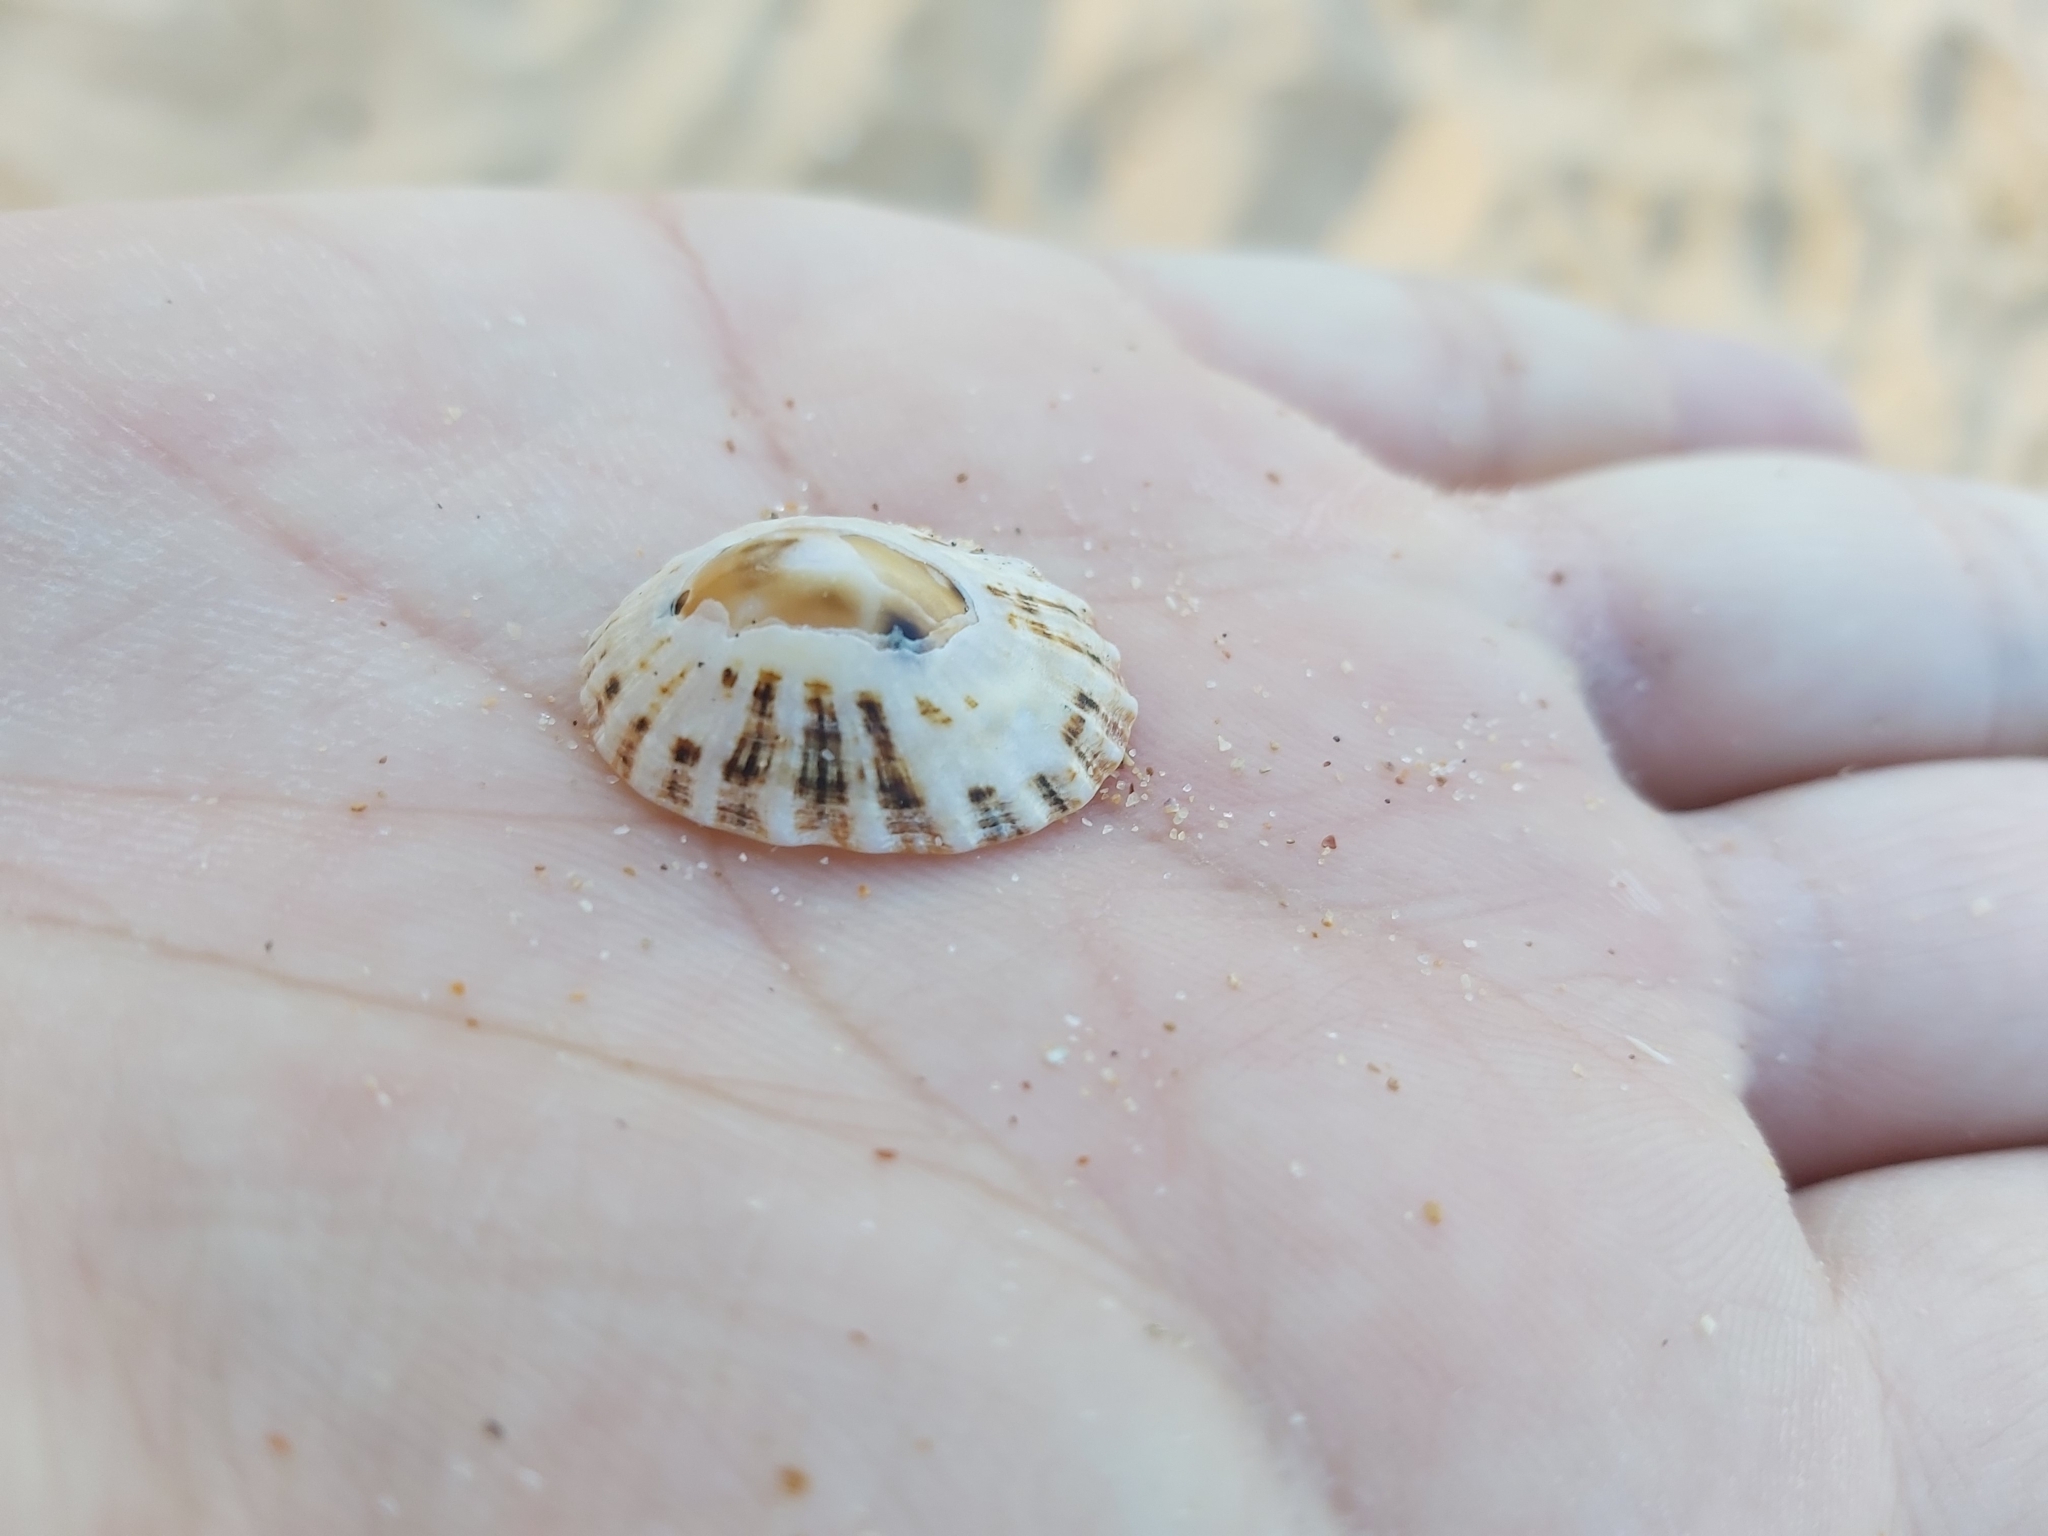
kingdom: Animalia
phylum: Mollusca
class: Gastropoda
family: Nacellidae
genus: Cellana
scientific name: Cellana tramoserica
